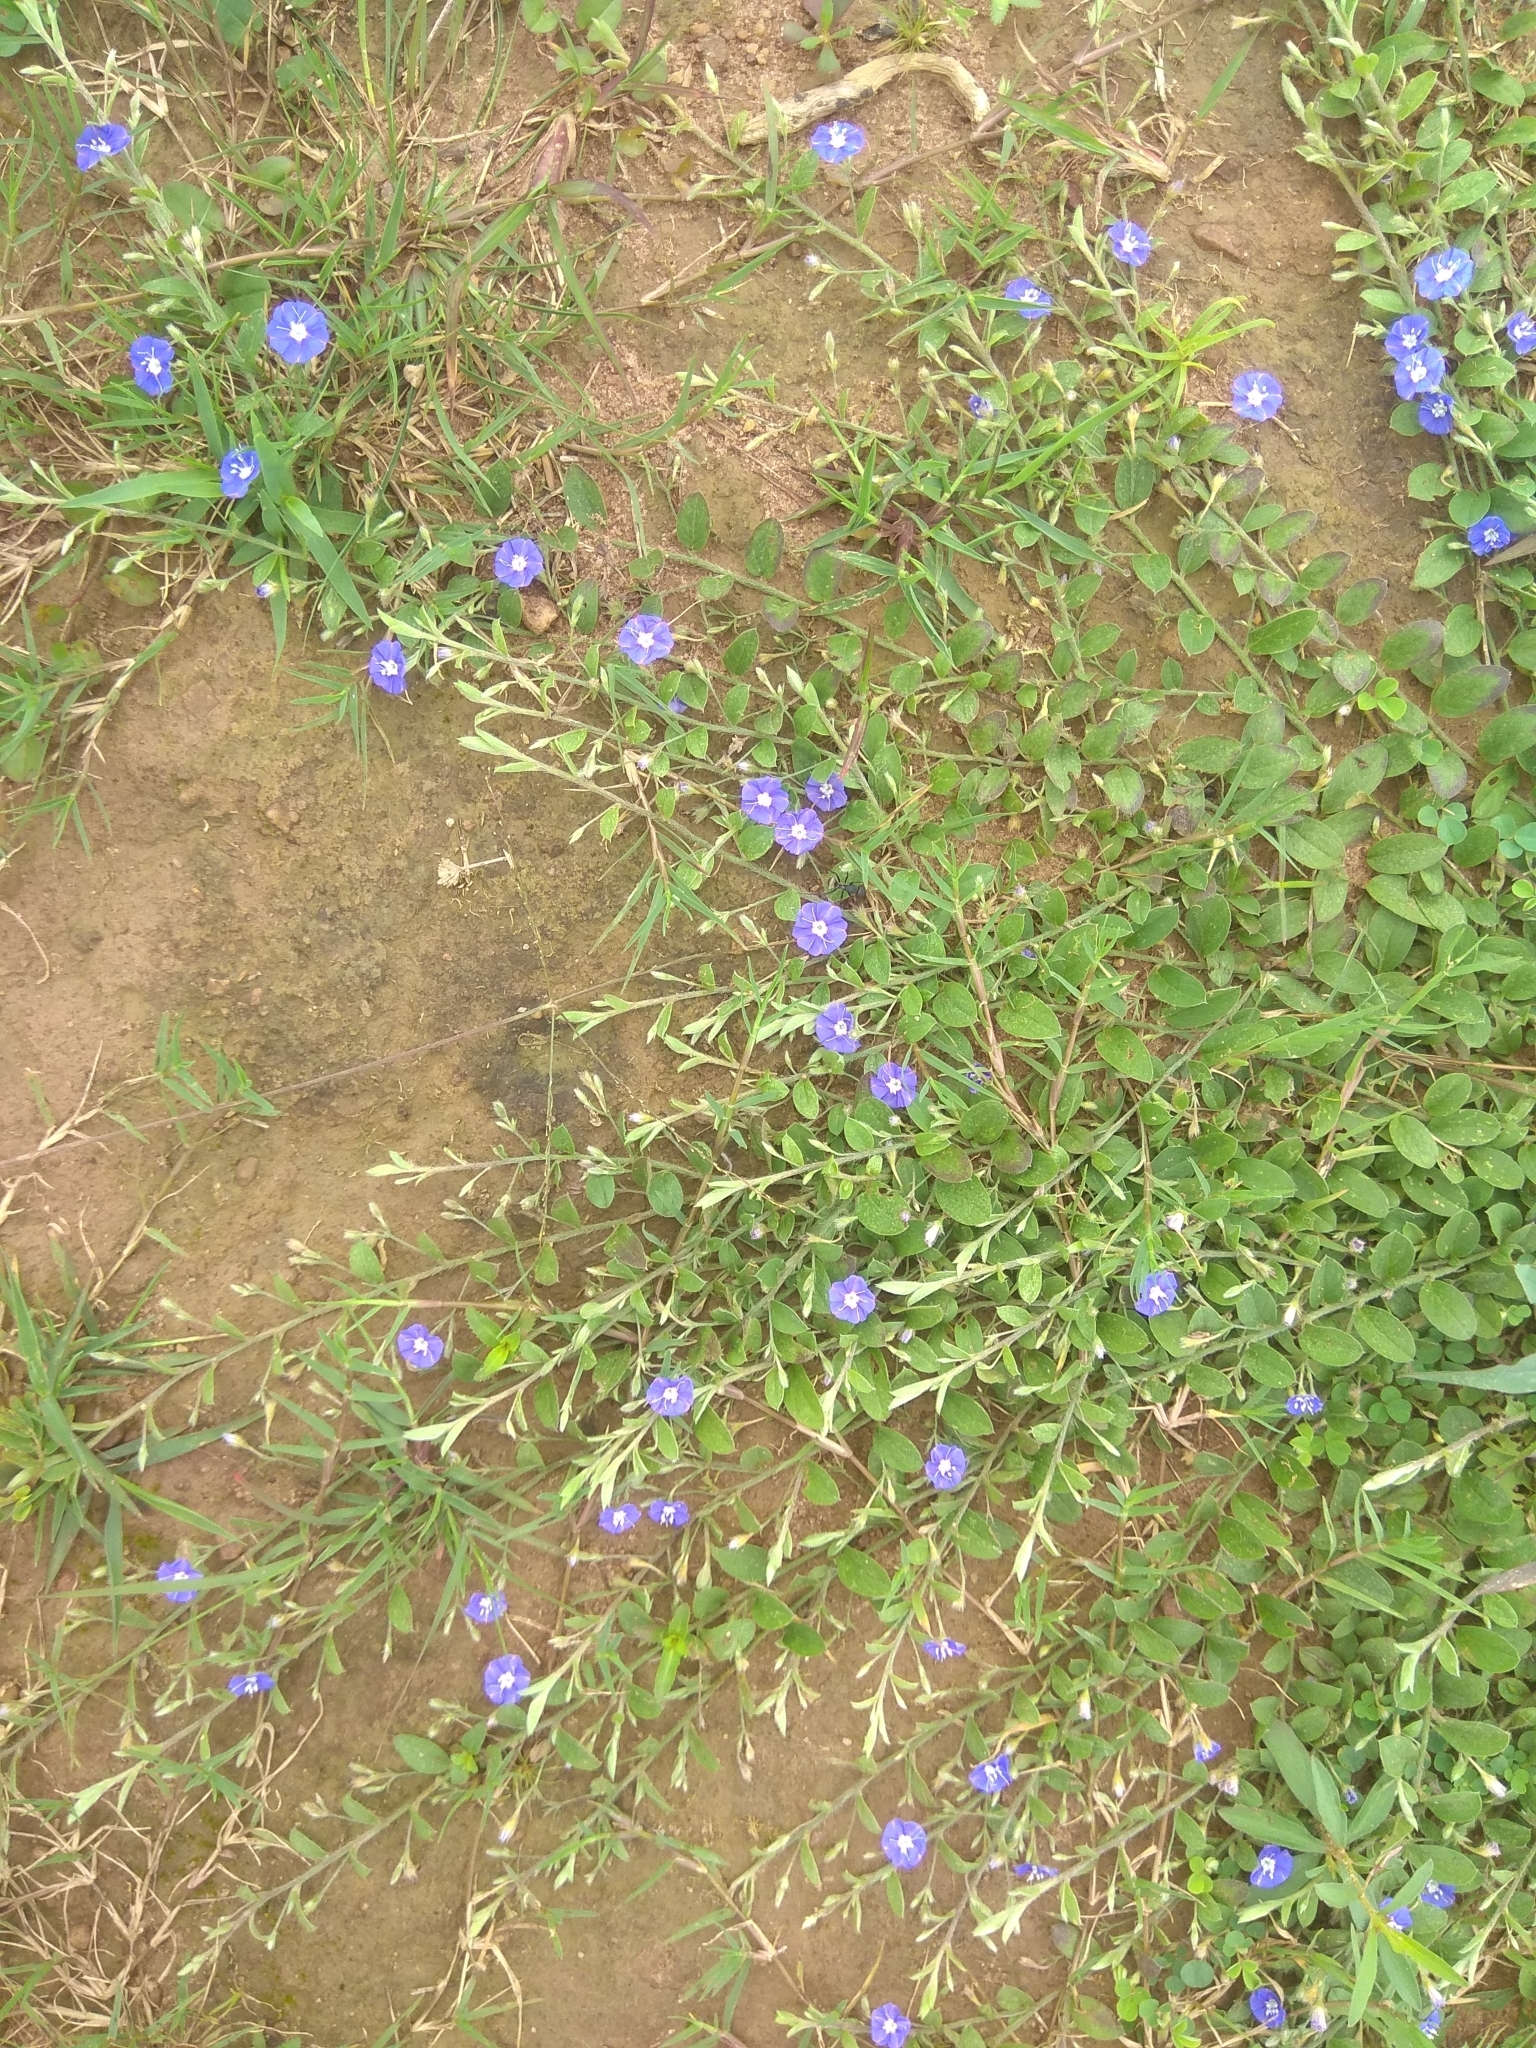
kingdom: Plantae
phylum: Tracheophyta
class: Magnoliopsida
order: Solanales
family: Convolvulaceae
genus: Evolvulus
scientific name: Evolvulus alsinoides
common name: Slender dwarf morning-glory
